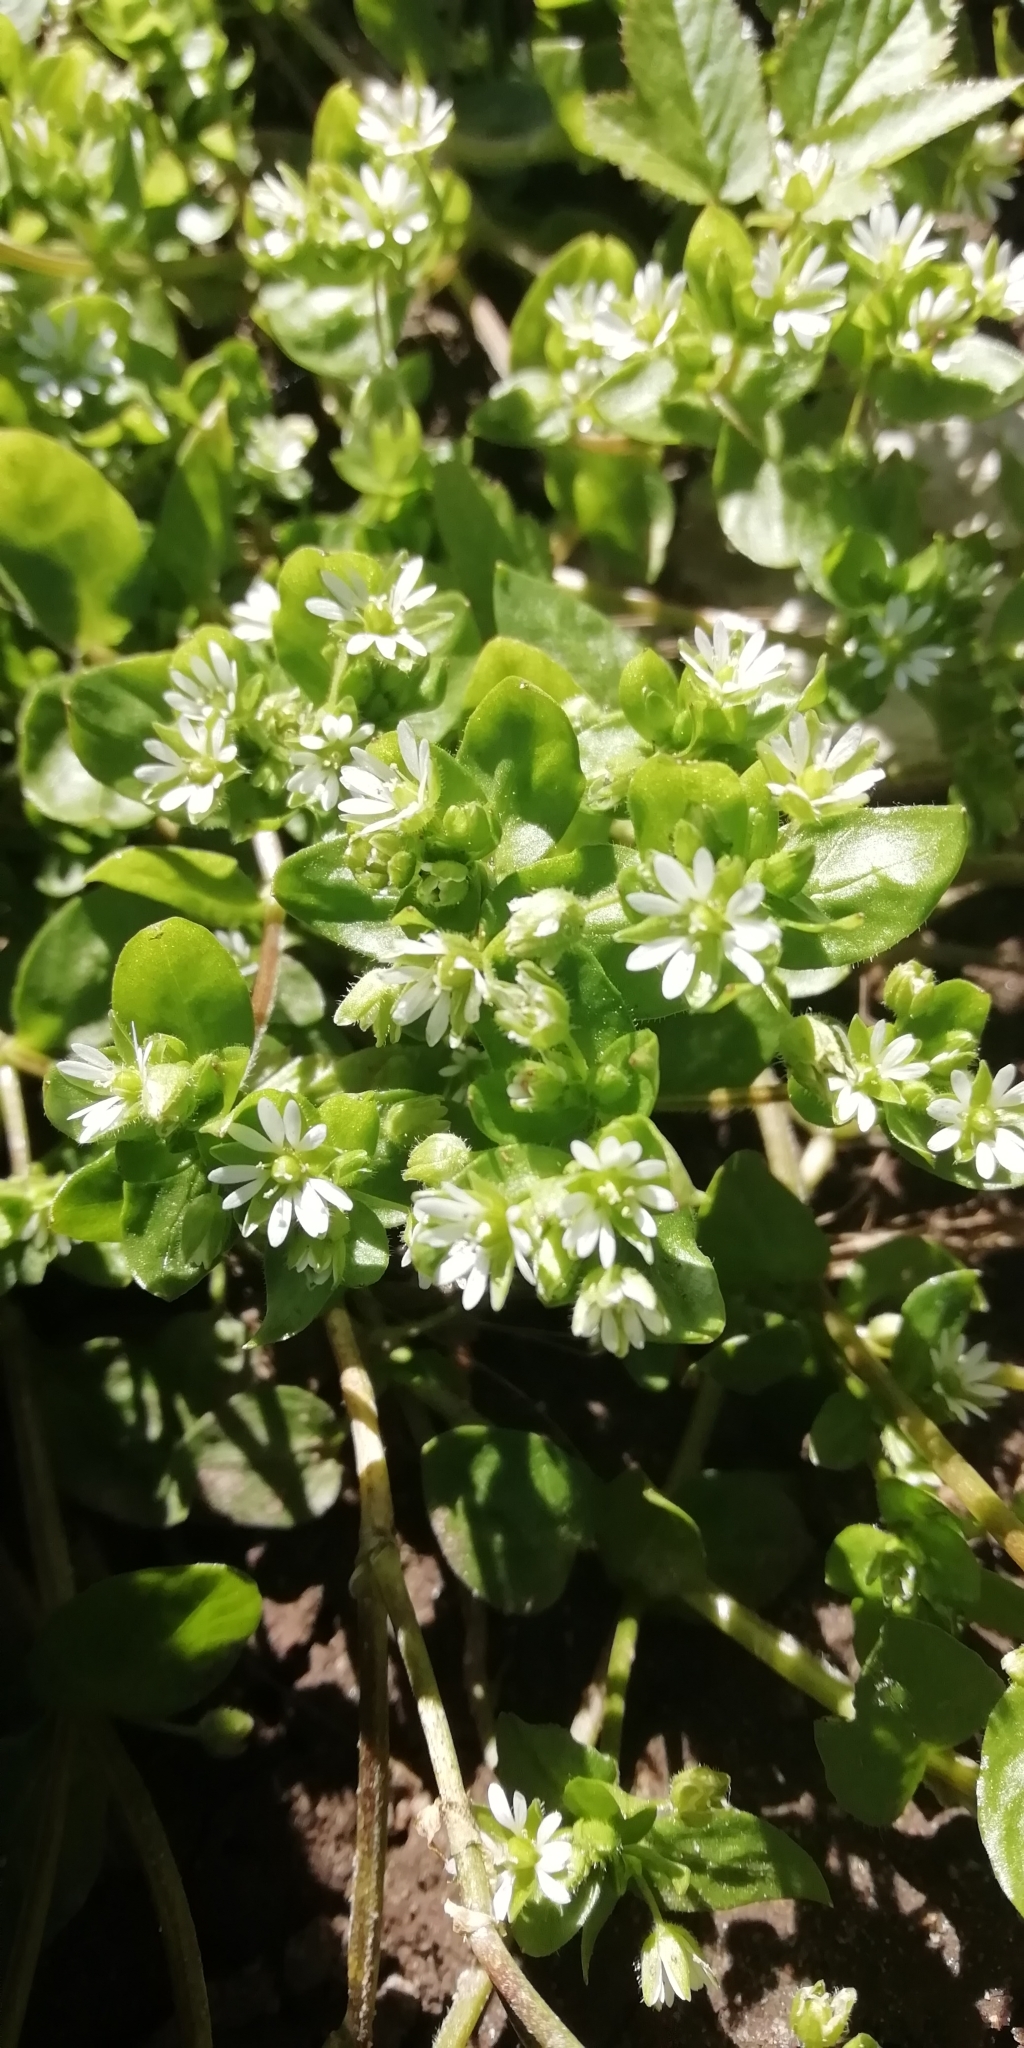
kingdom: Plantae
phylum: Tracheophyta
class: Magnoliopsida
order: Caryophyllales
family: Caryophyllaceae
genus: Stellaria
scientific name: Stellaria media
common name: Common chickweed
